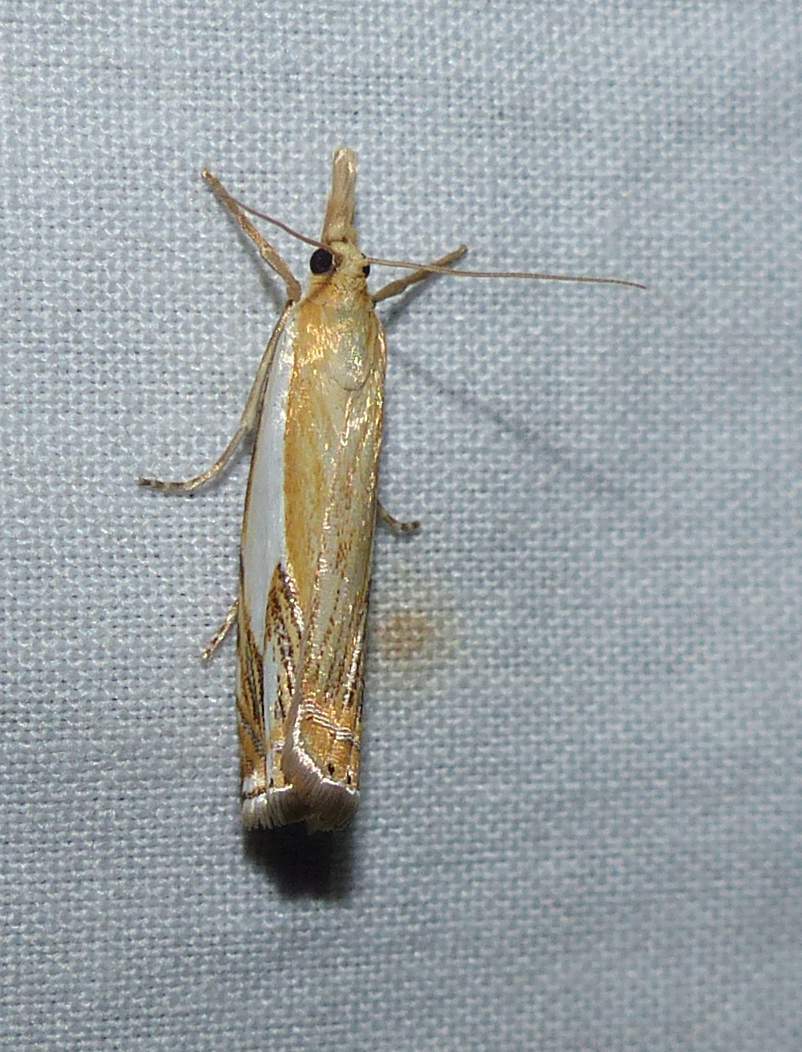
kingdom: Animalia
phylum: Arthropoda
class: Insecta
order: Lepidoptera
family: Crambidae
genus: Crambus
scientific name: Crambus agitatellus
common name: Double-banded grass-veneer
